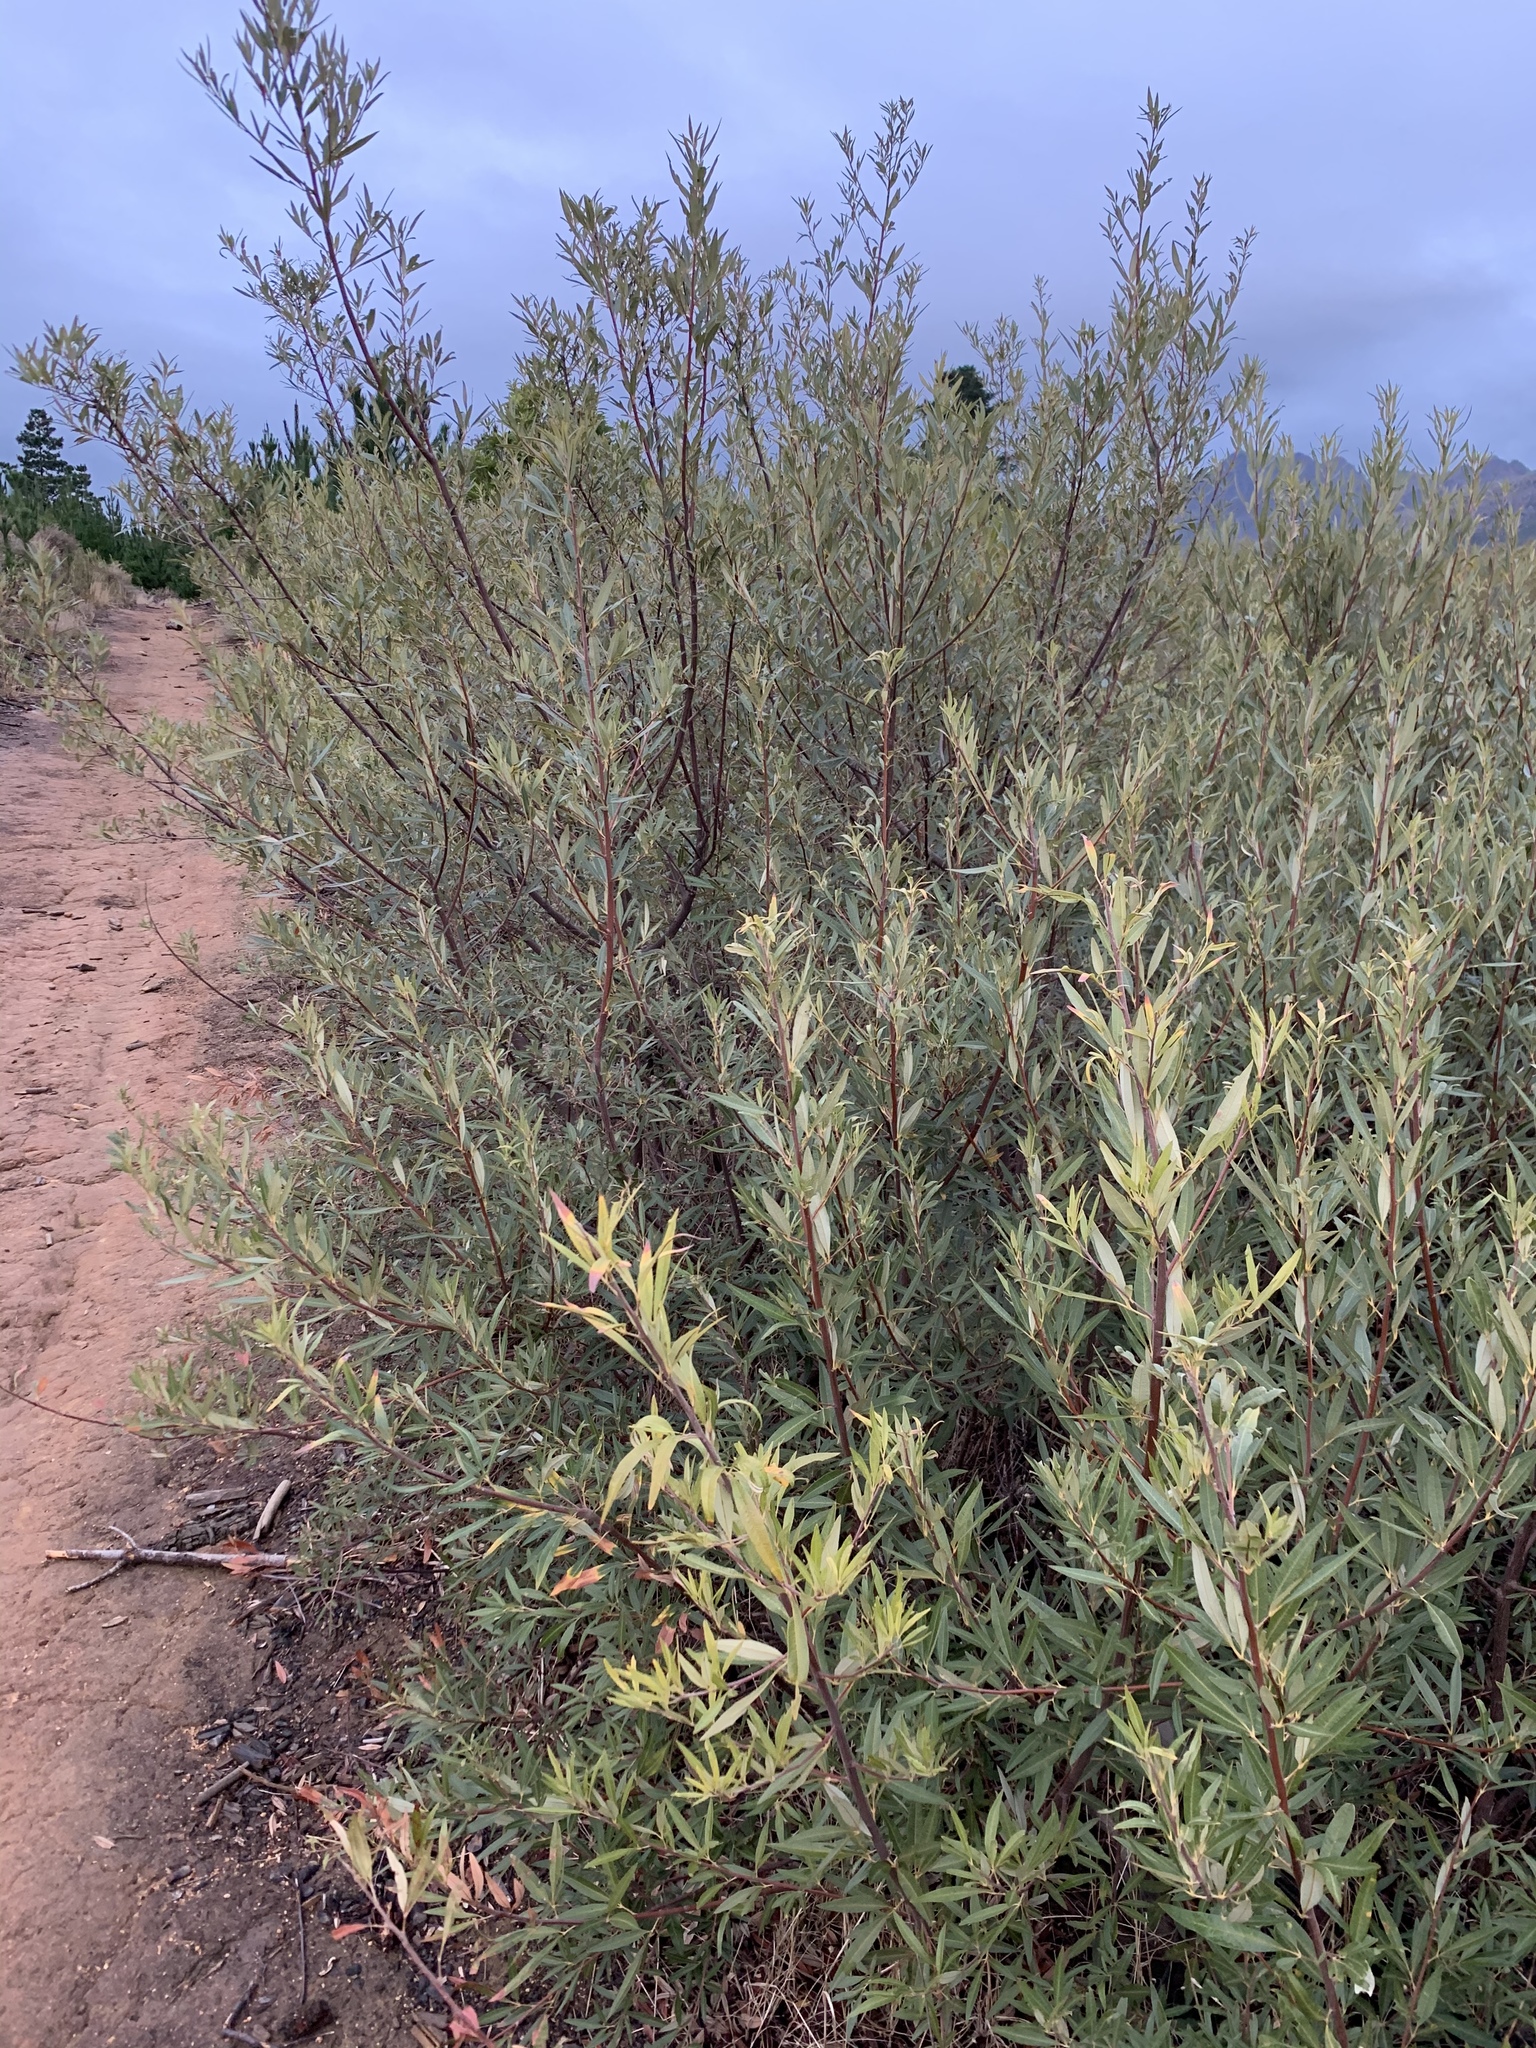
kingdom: Plantae
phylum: Tracheophyta
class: Magnoliopsida
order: Sapindales
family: Anacardiaceae
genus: Searsia
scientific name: Searsia angustifolia
